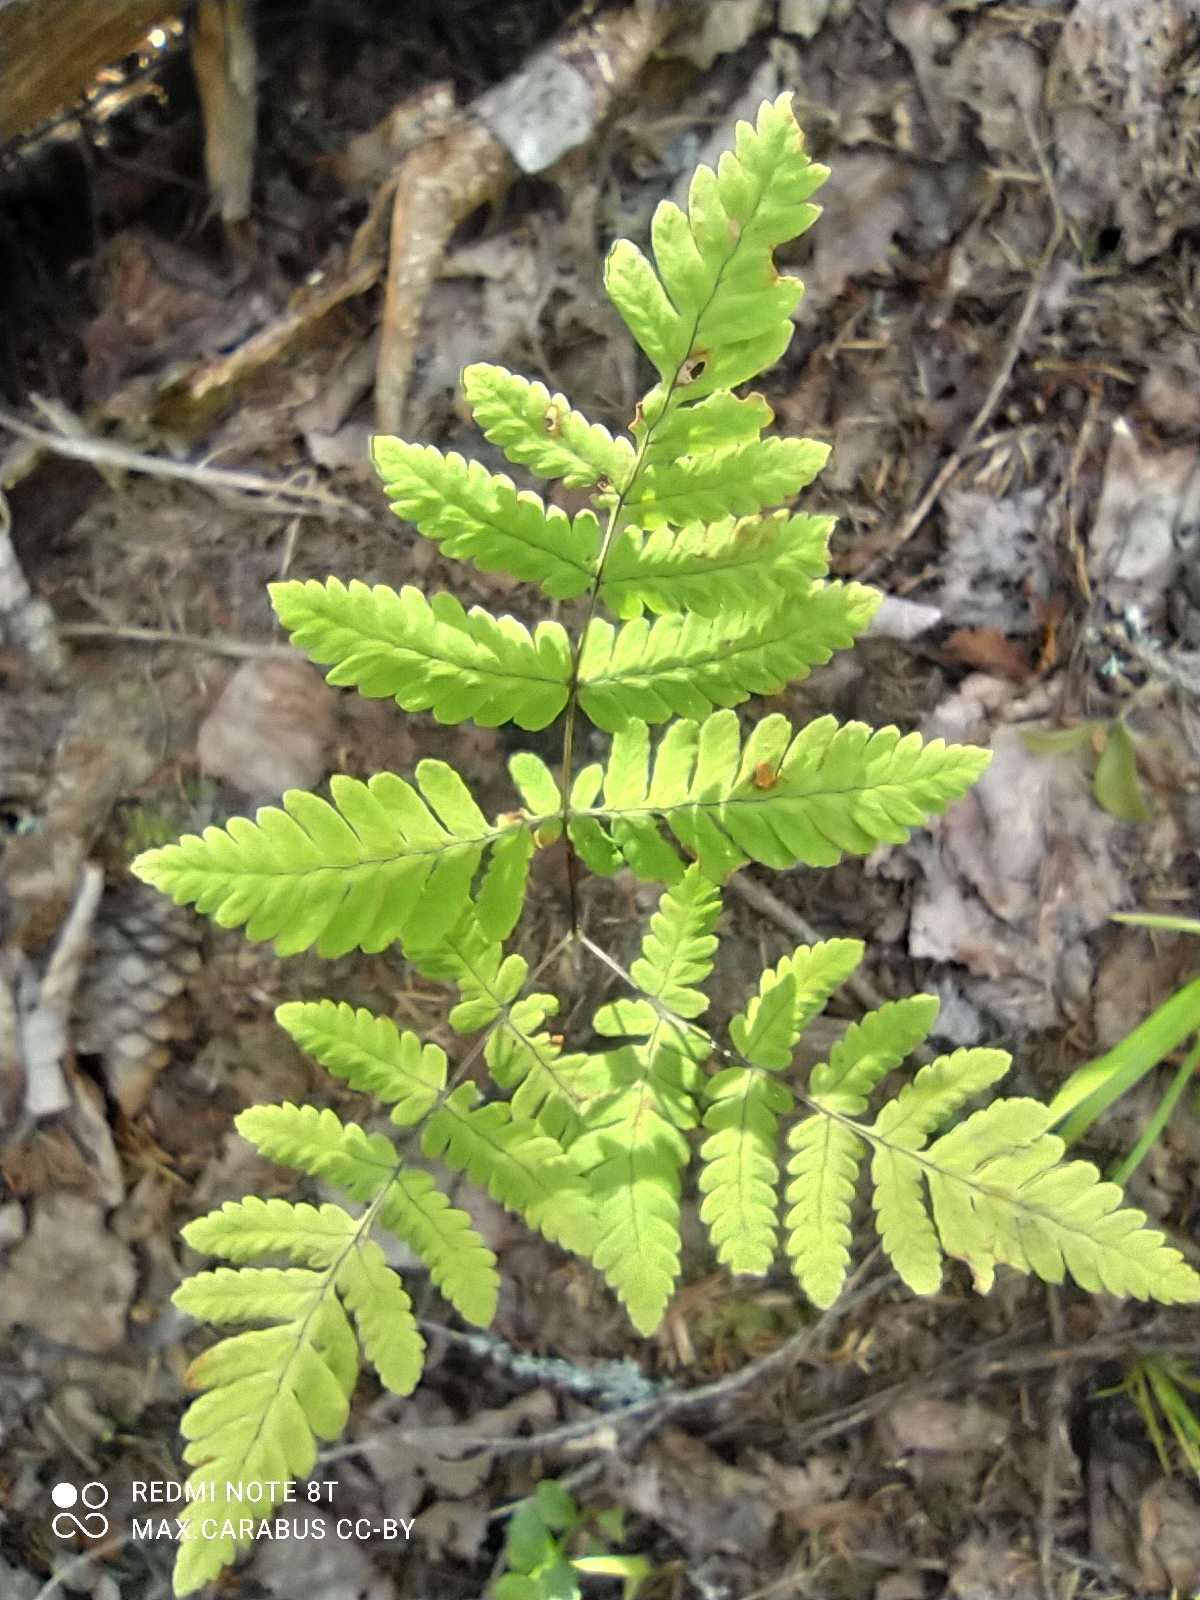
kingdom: Plantae
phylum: Tracheophyta
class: Polypodiopsida
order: Polypodiales
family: Cystopteridaceae
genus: Gymnocarpium
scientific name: Gymnocarpium dryopteris
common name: Oak fern
